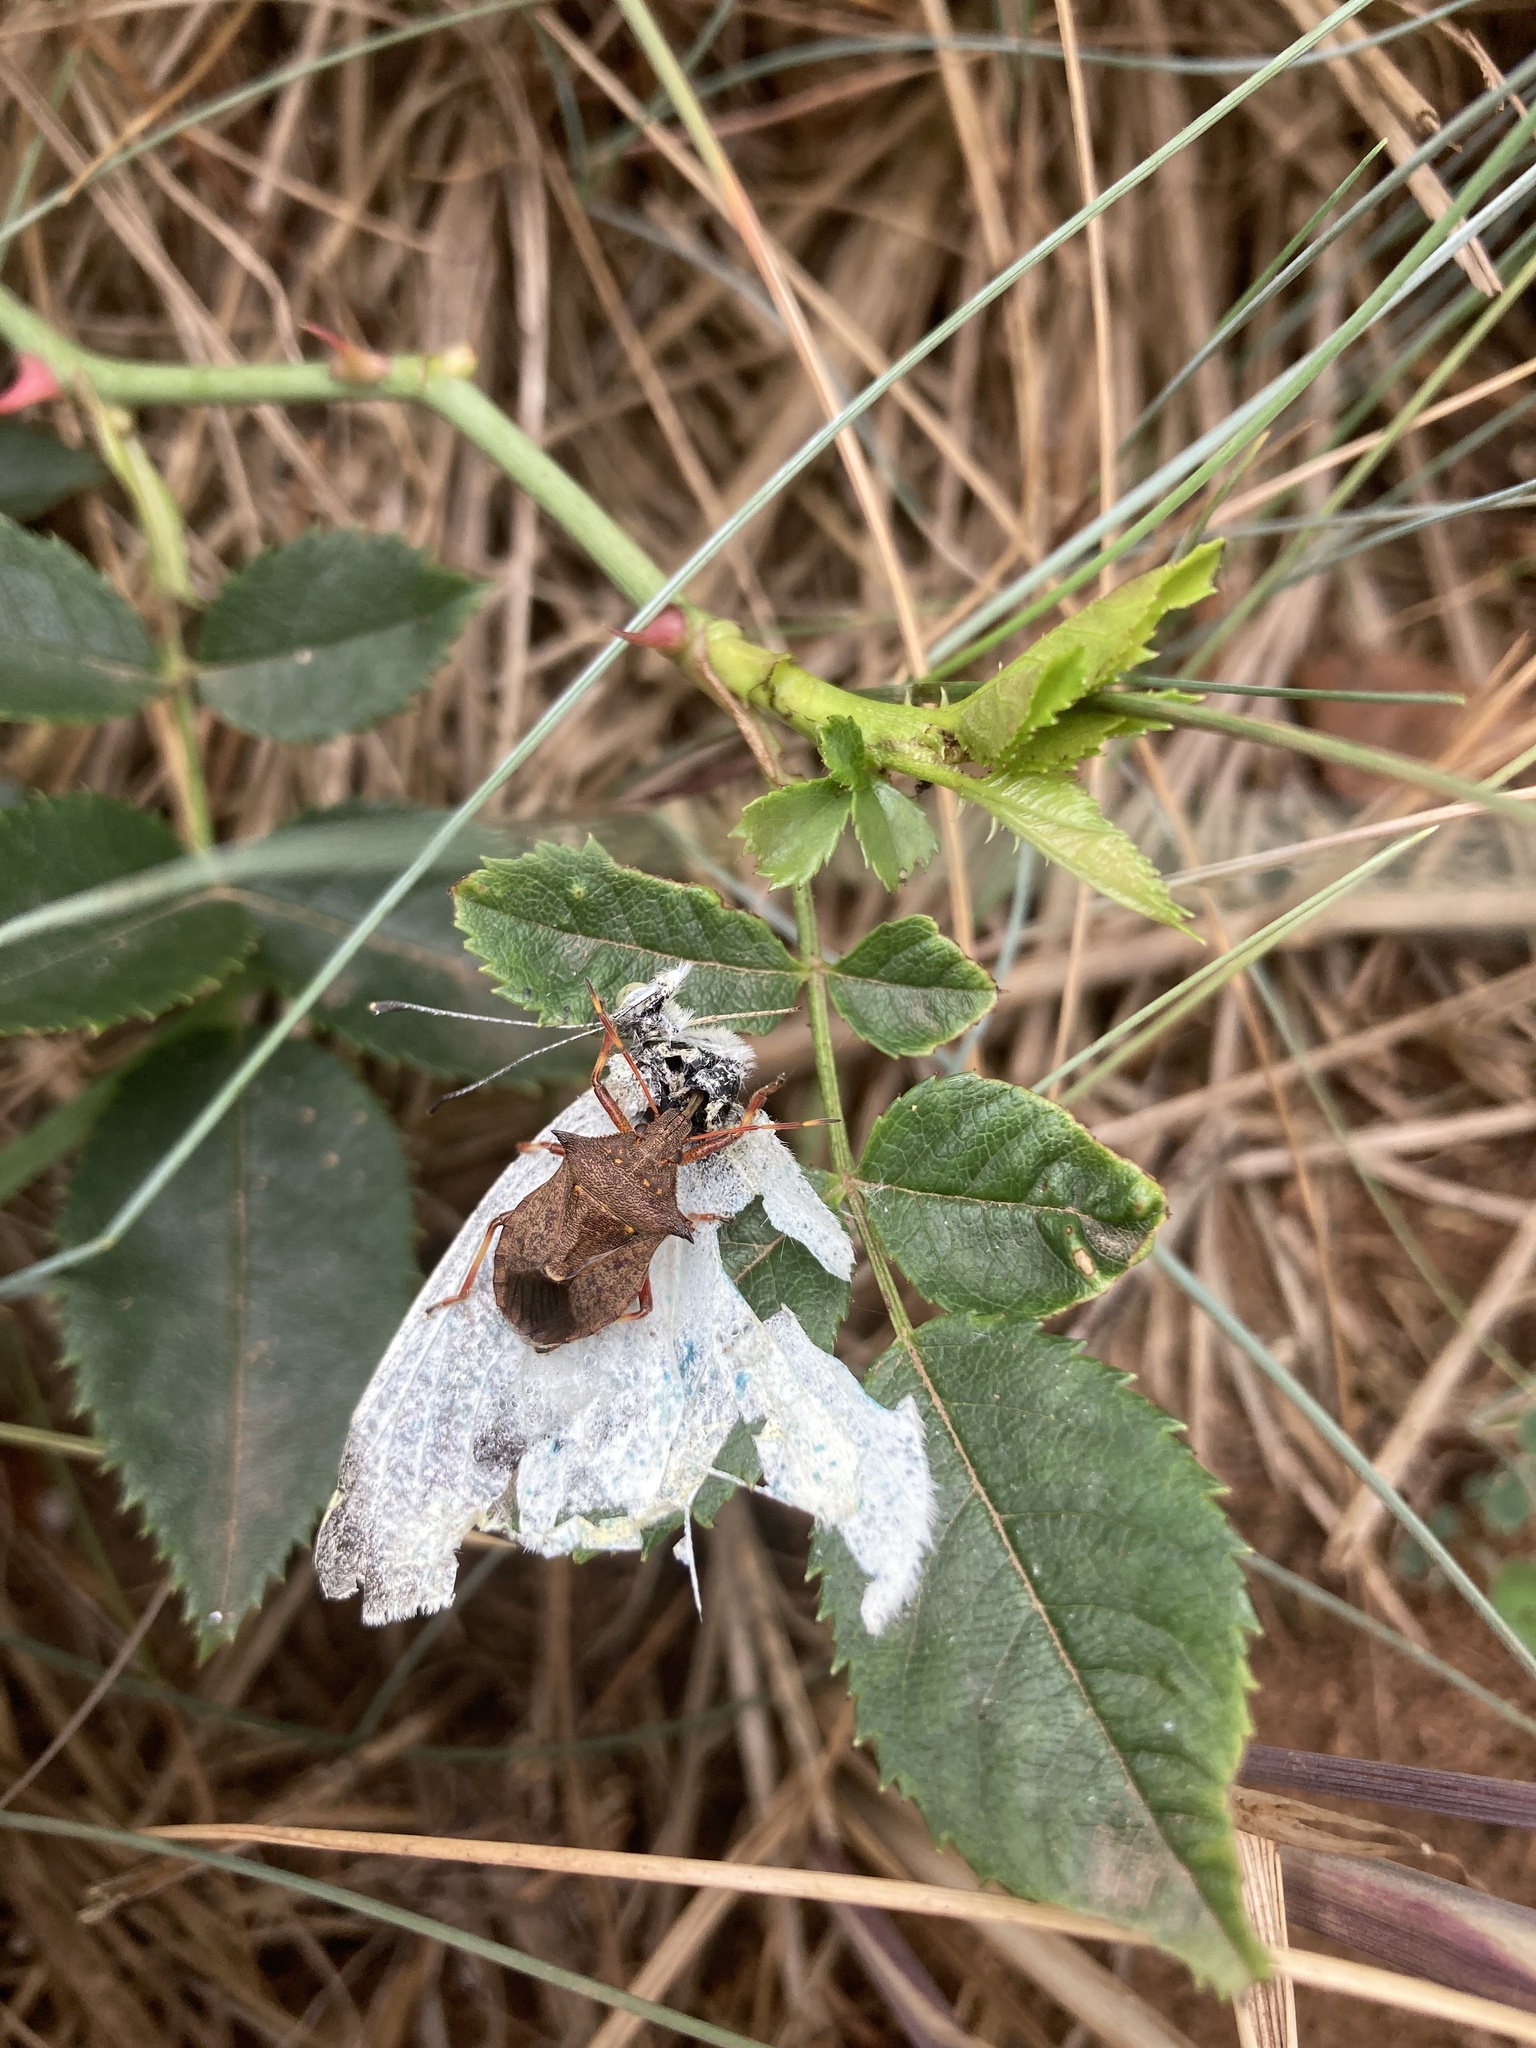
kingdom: Animalia
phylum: Arthropoda
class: Insecta
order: Hemiptera
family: Pentatomidae
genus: Picromerus
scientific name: Picromerus bidens
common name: Spiked shieldbug
